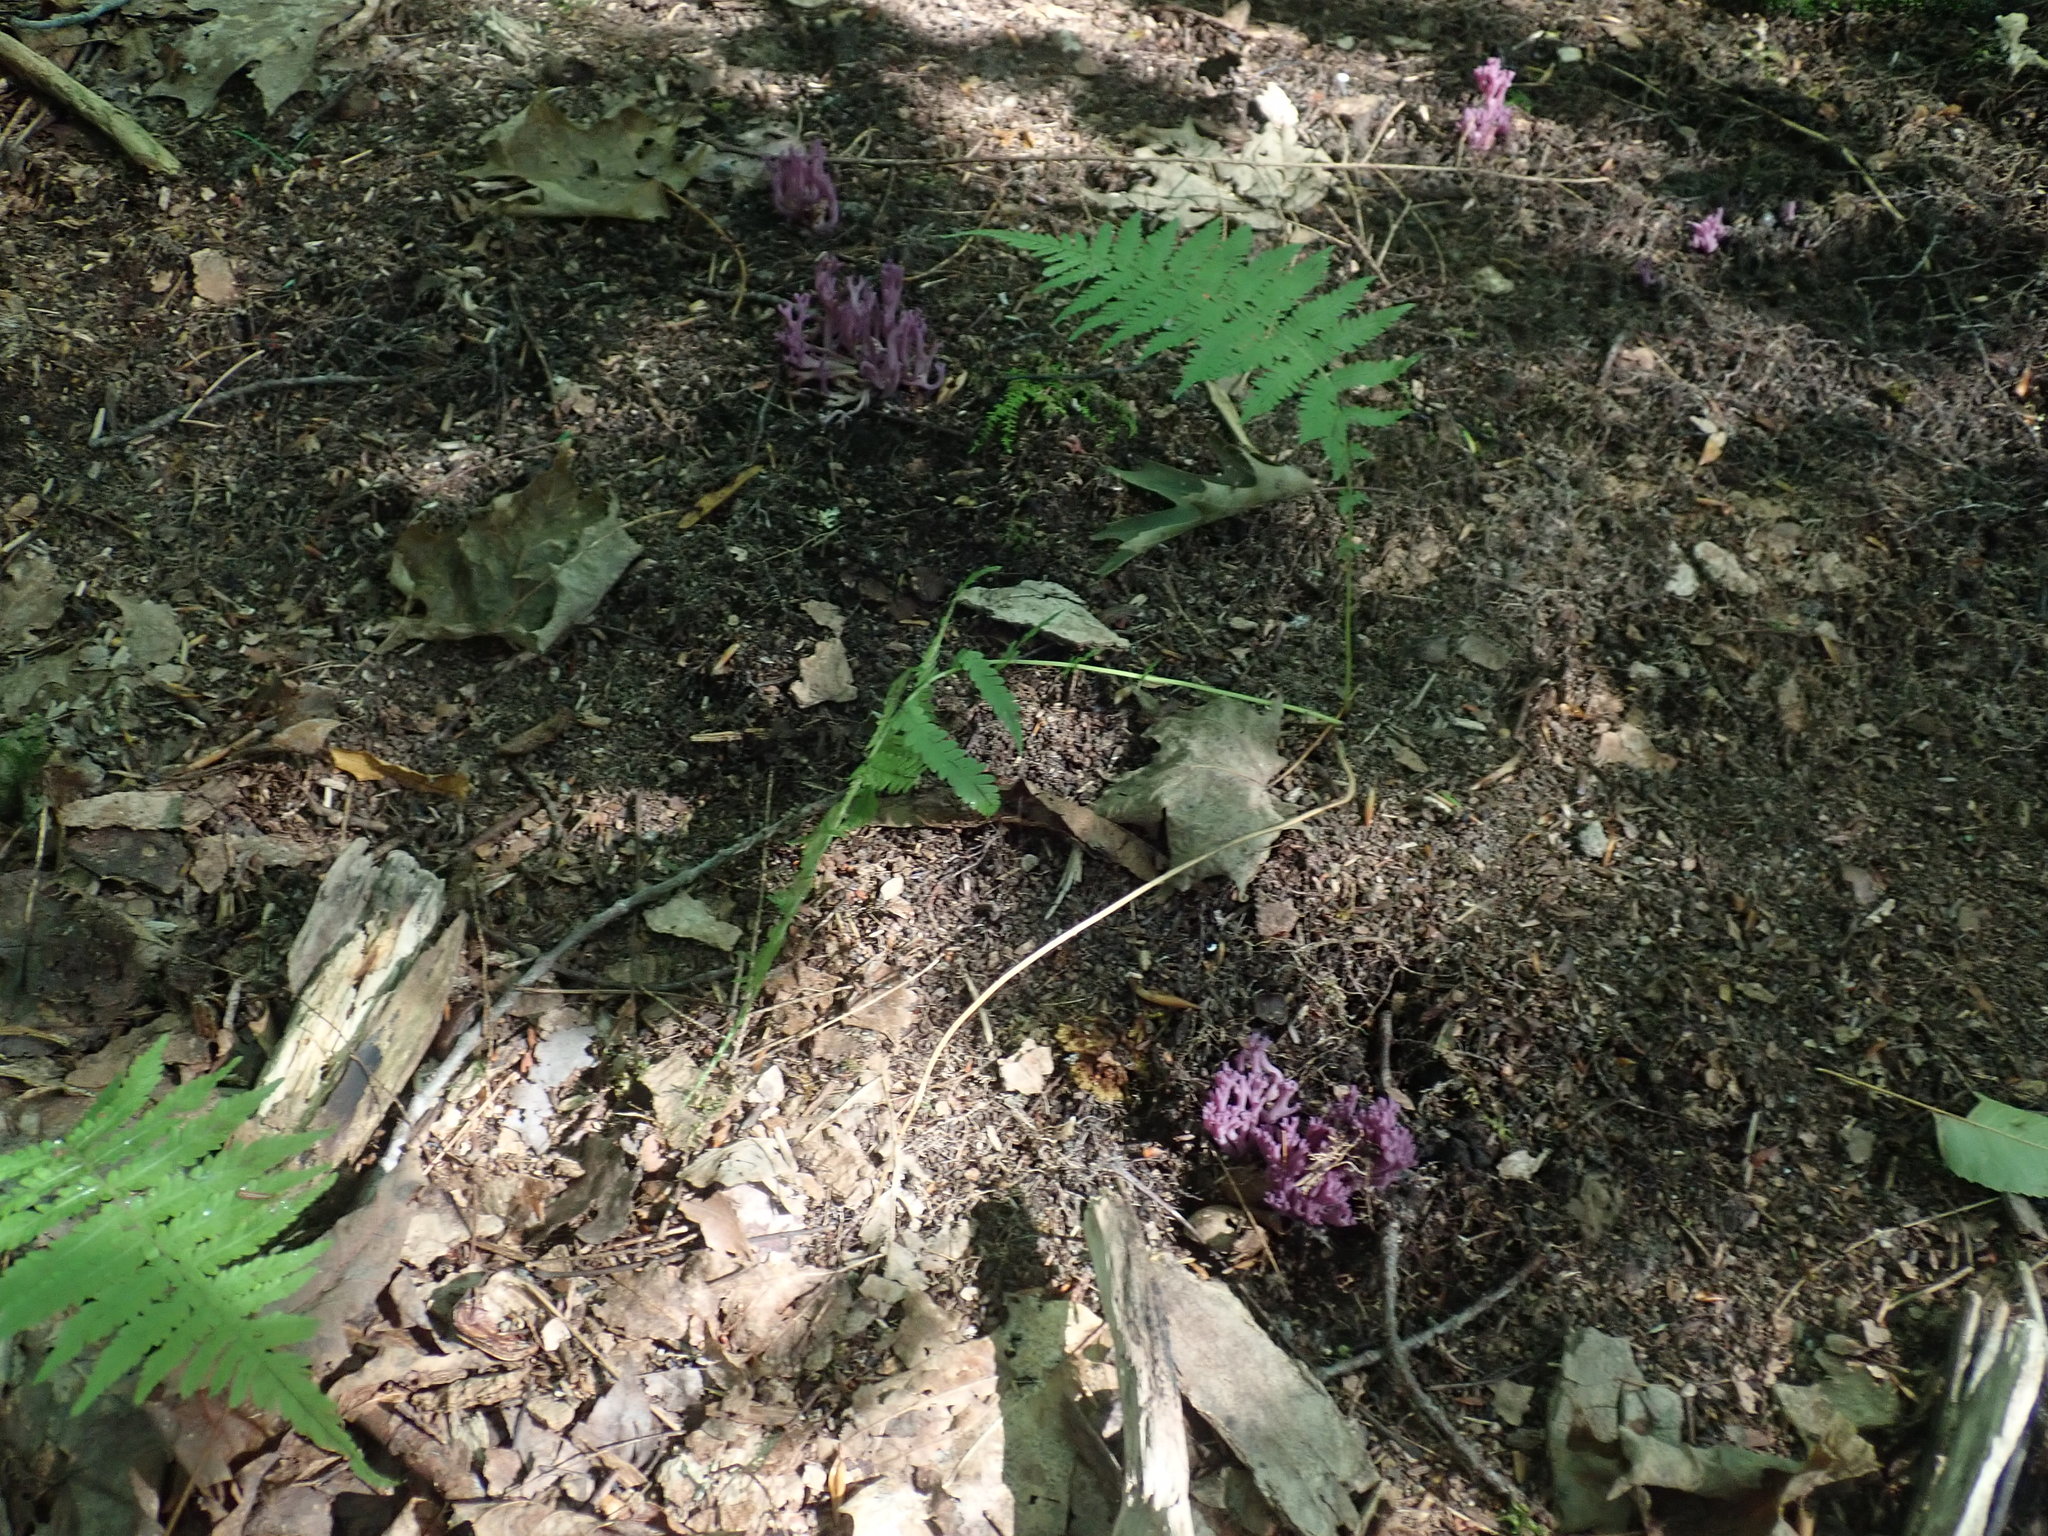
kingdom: Fungi
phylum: Basidiomycota
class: Agaricomycetes
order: Agaricales
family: Clavariaceae
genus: Clavaria
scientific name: Clavaria zollingeri
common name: Violet coral
